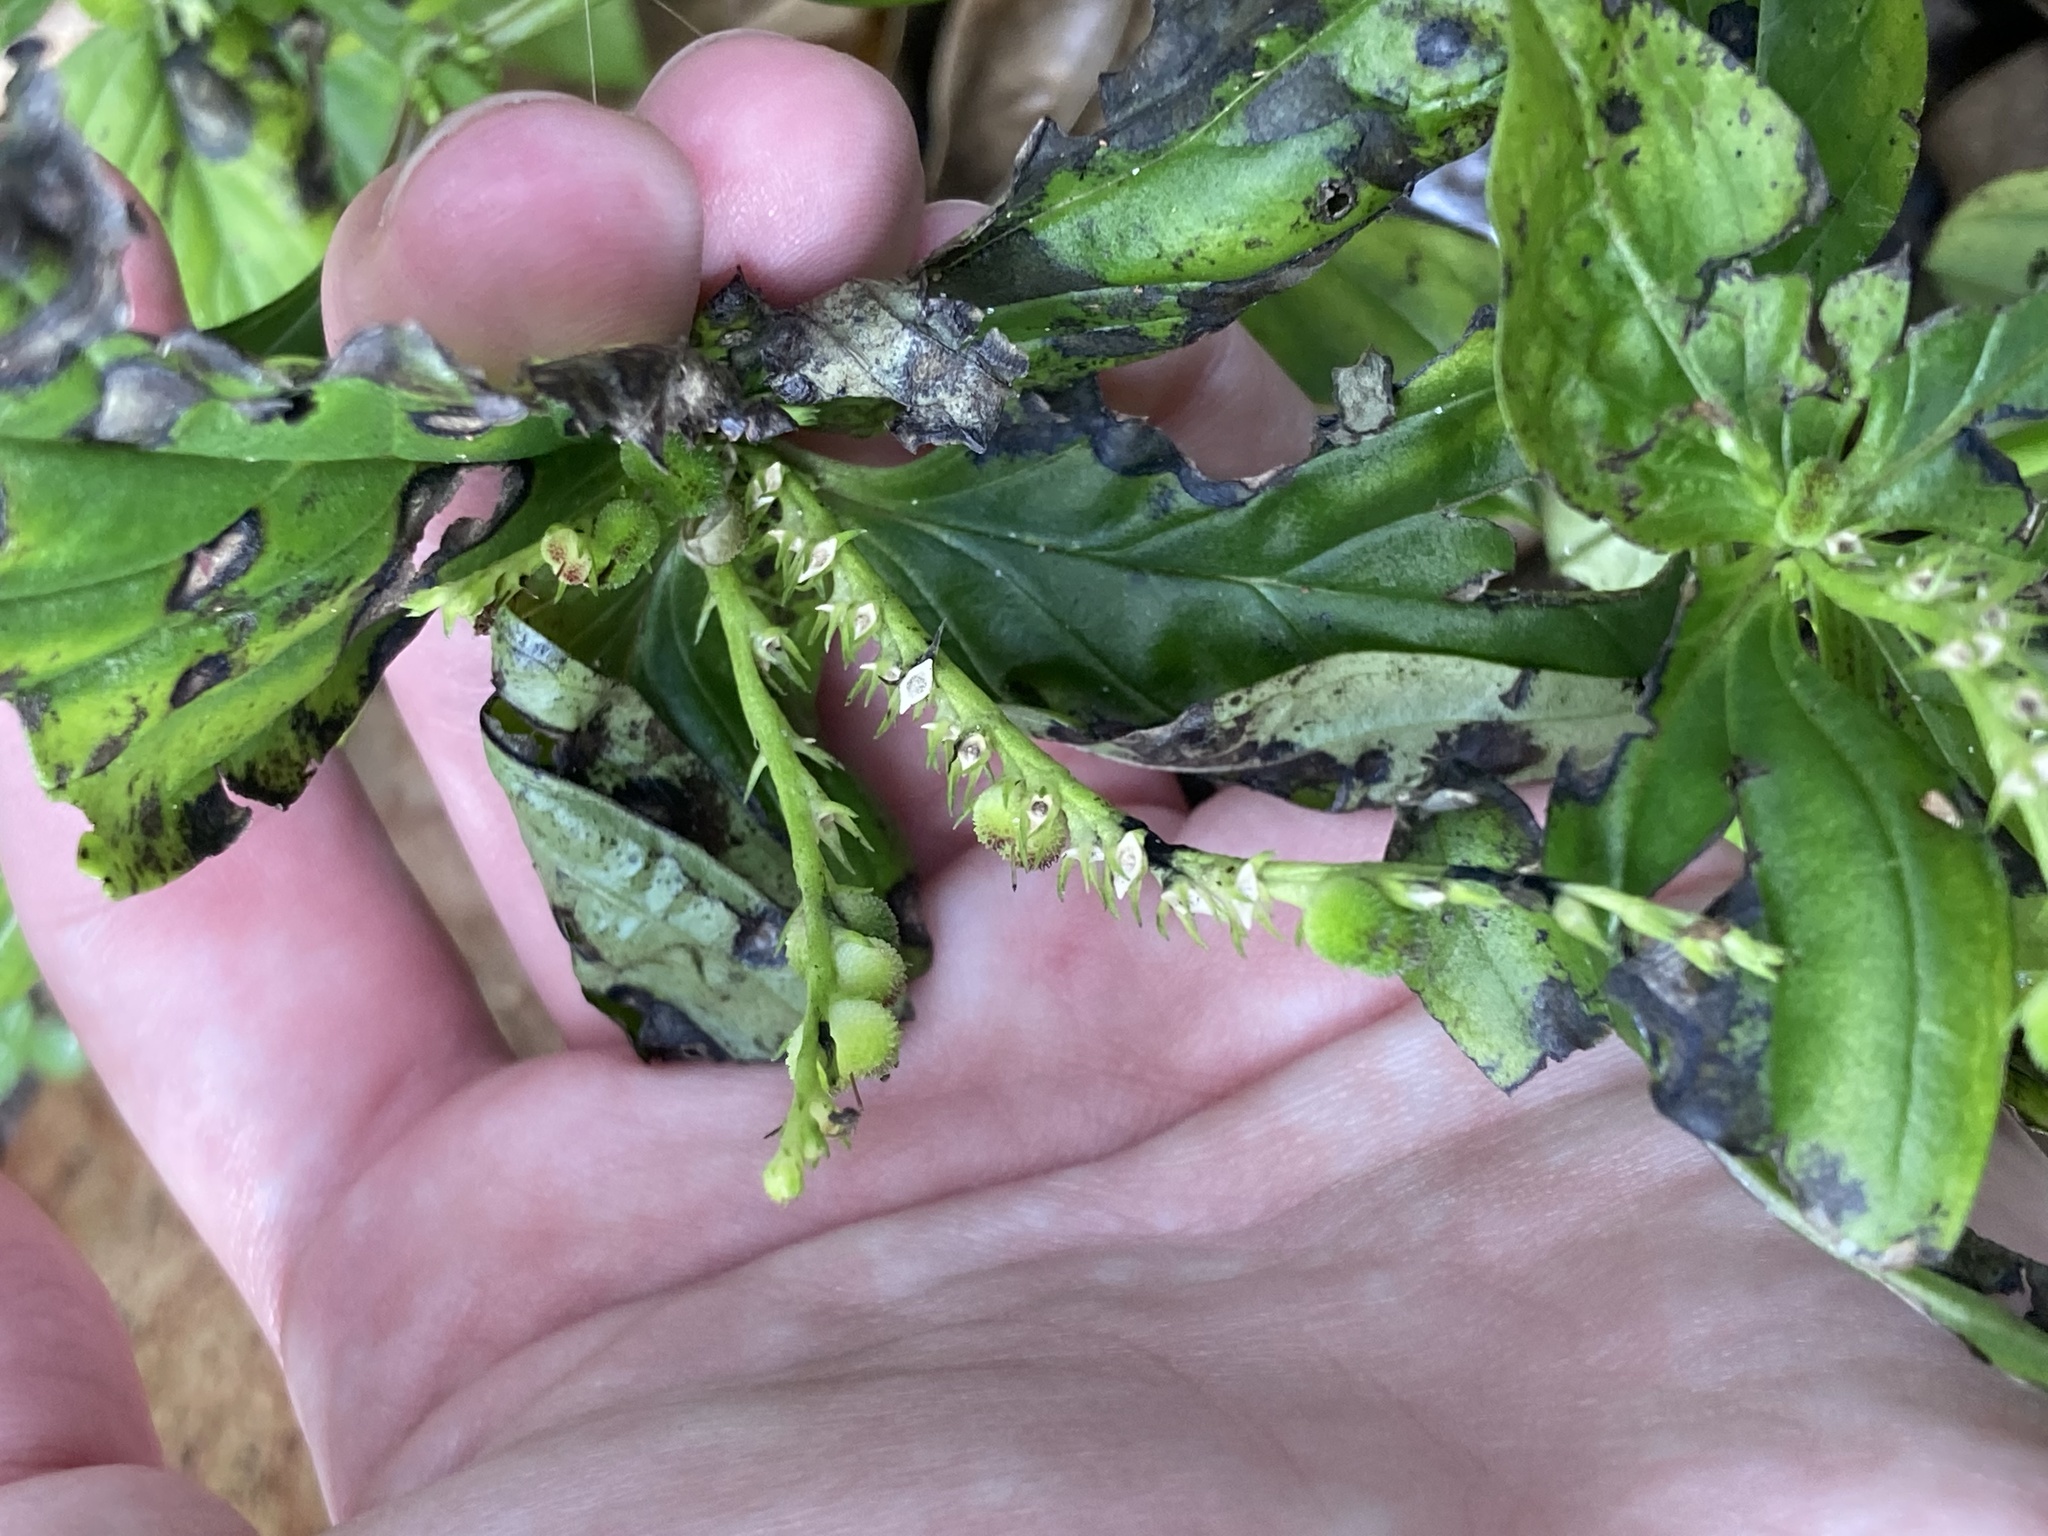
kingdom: Plantae
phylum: Tracheophyta
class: Magnoliopsida
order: Gentianales
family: Loganiaceae
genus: Spigelia
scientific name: Spigelia anthelmia
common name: West indian-pink
